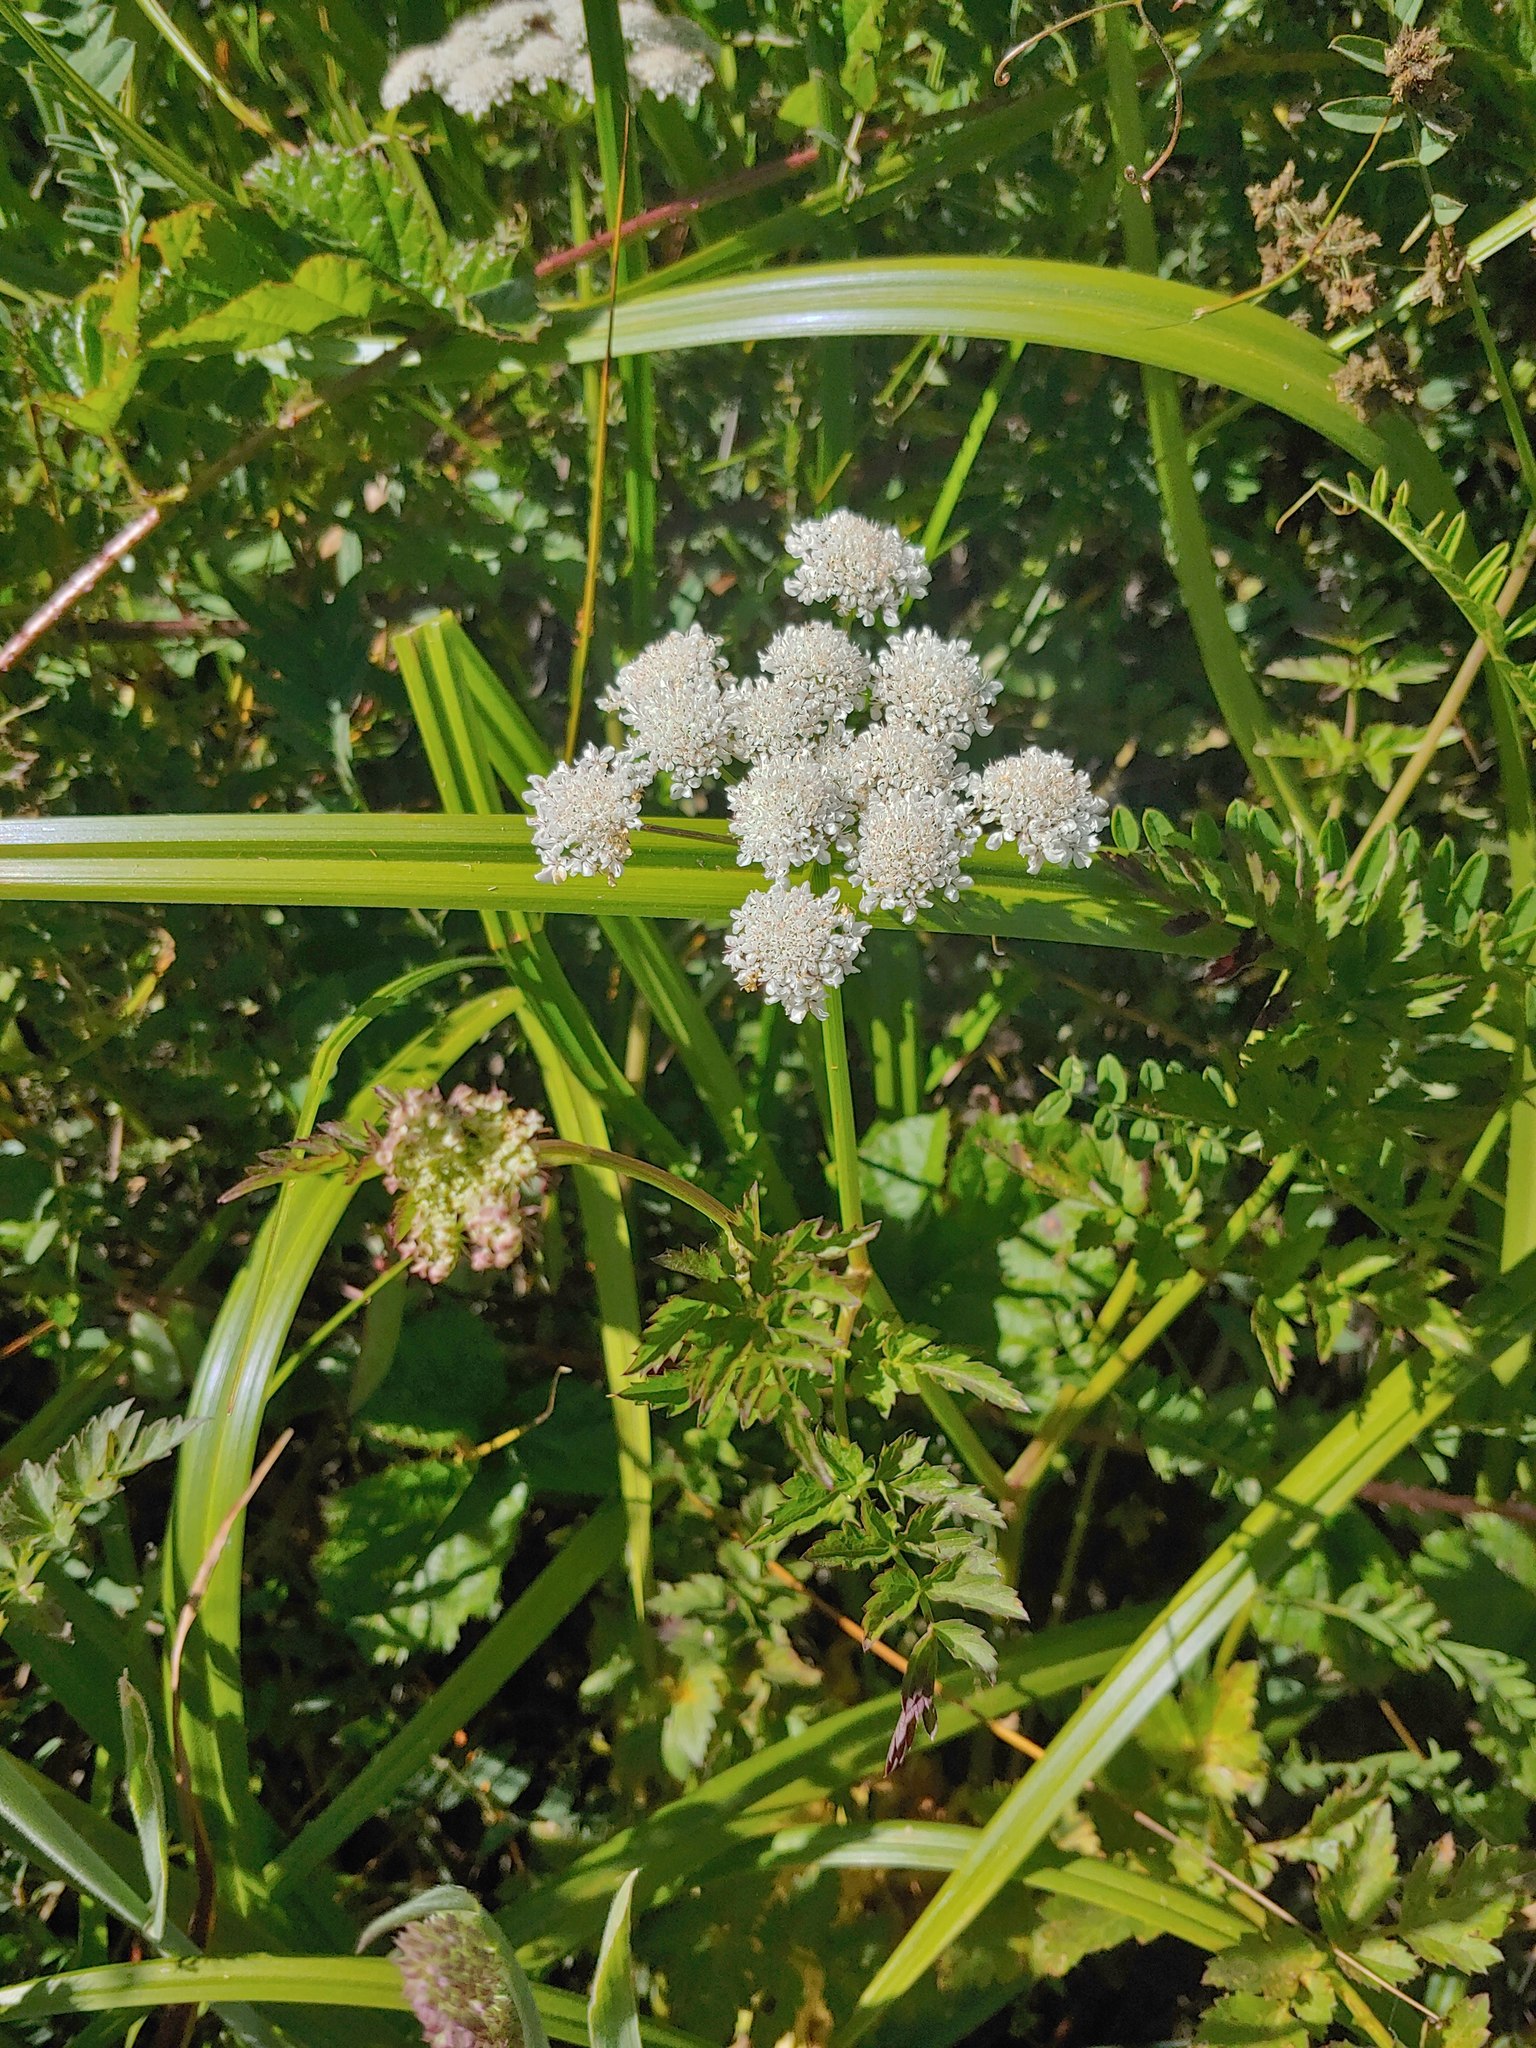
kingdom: Plantae
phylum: Tracheophyta
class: Magnoliopsida
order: Apiales
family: Apiaceae
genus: Oenanthe
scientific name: Oenanthe sarmentosa
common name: American water-parsley
